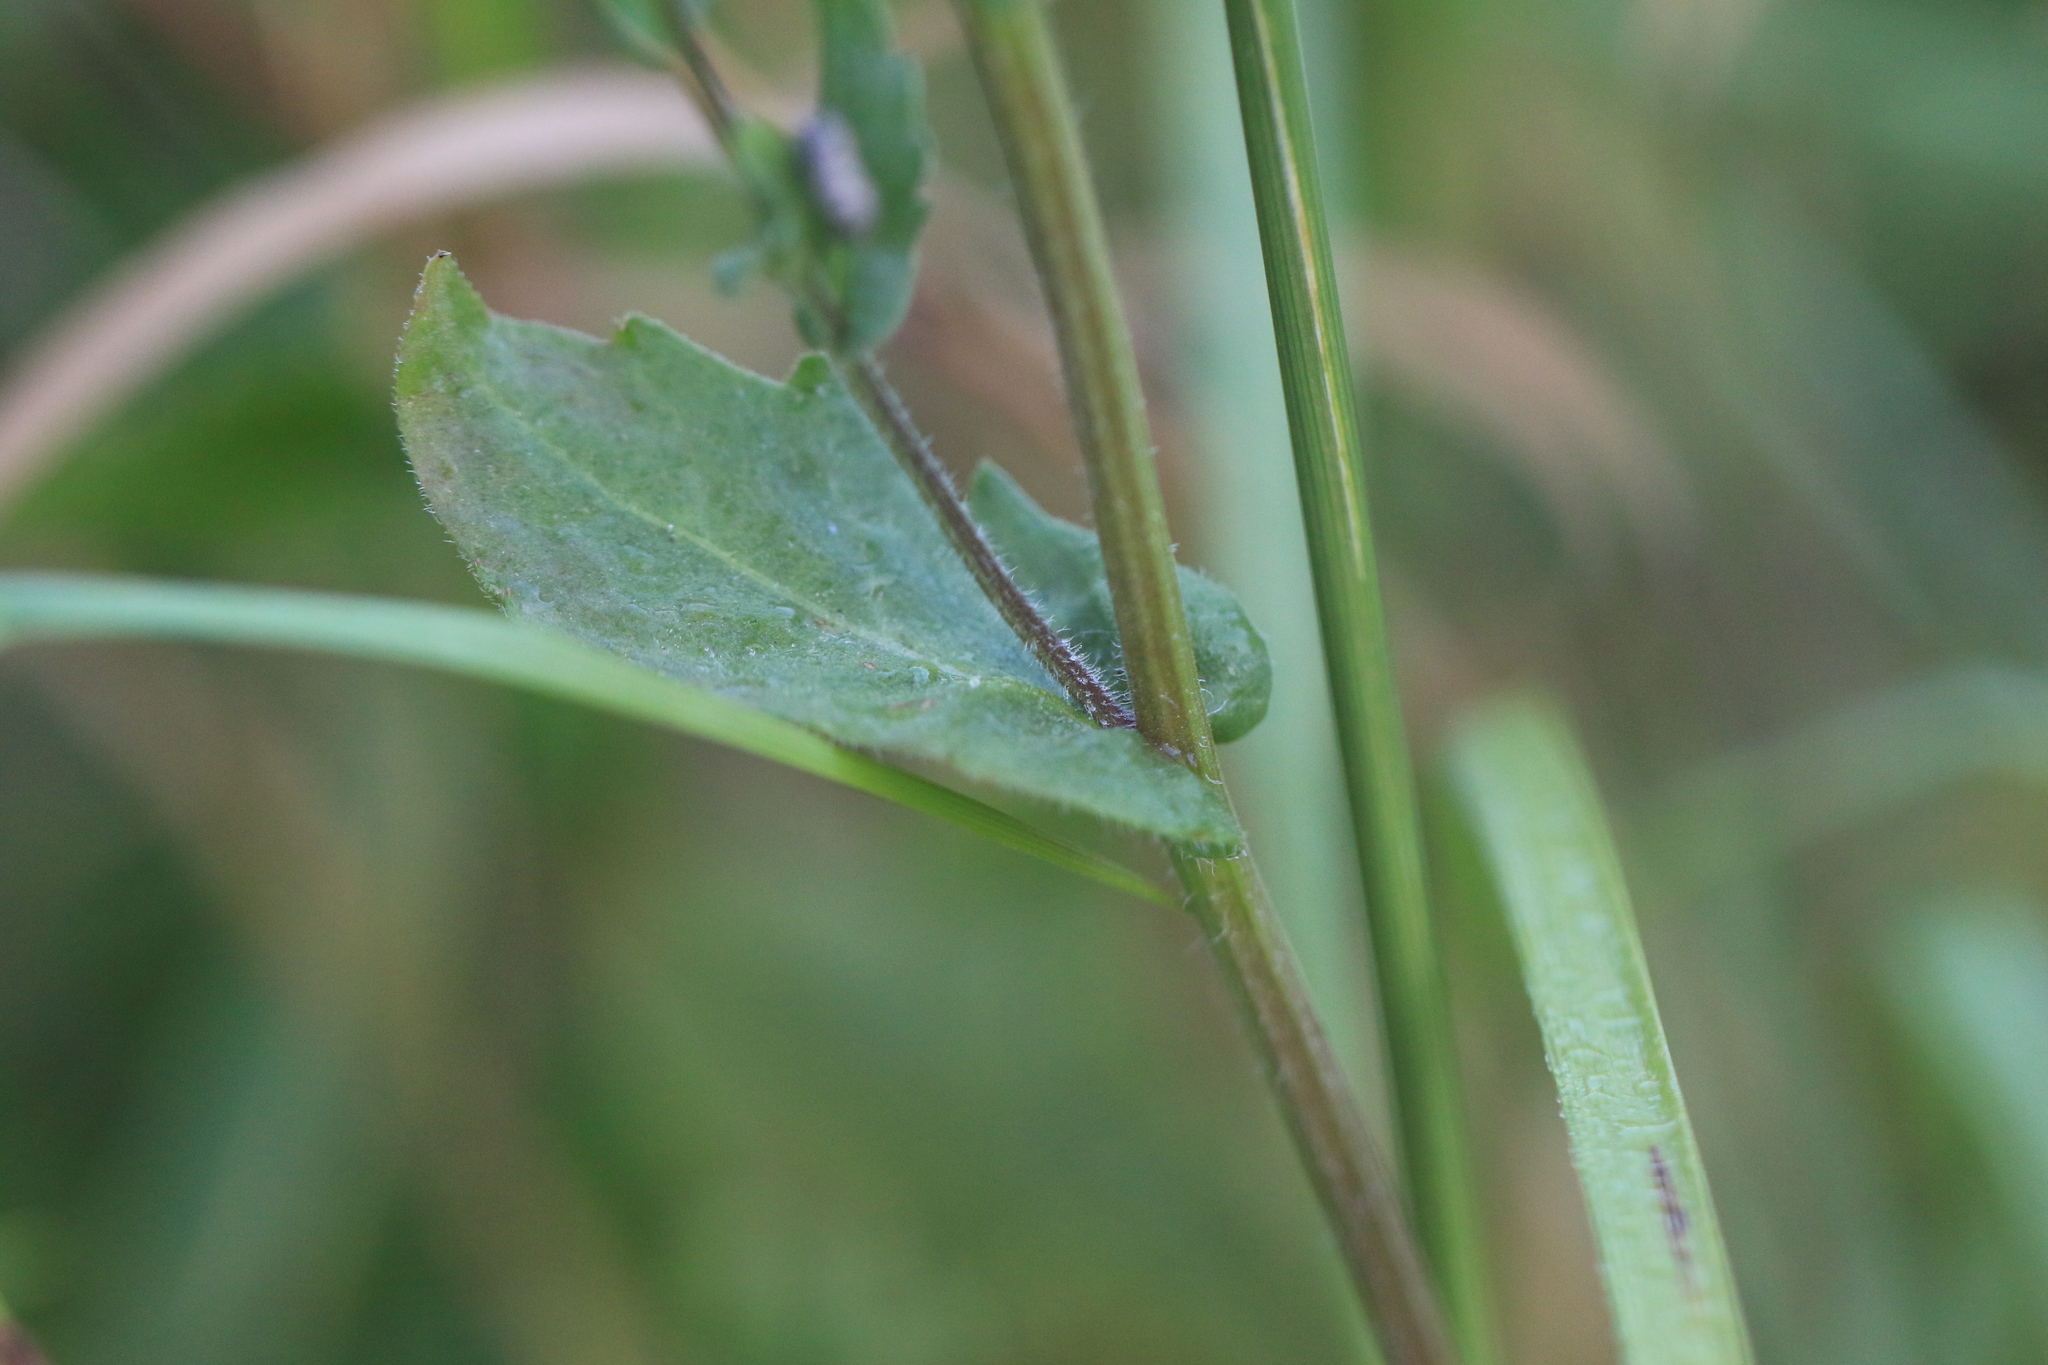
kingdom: Plantae
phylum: Tracheophyta
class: Magnoliopsida
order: Asterales
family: Asteraceae
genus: Erigeron
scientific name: Erigeron philadelphicus
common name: Robin's-plantain
